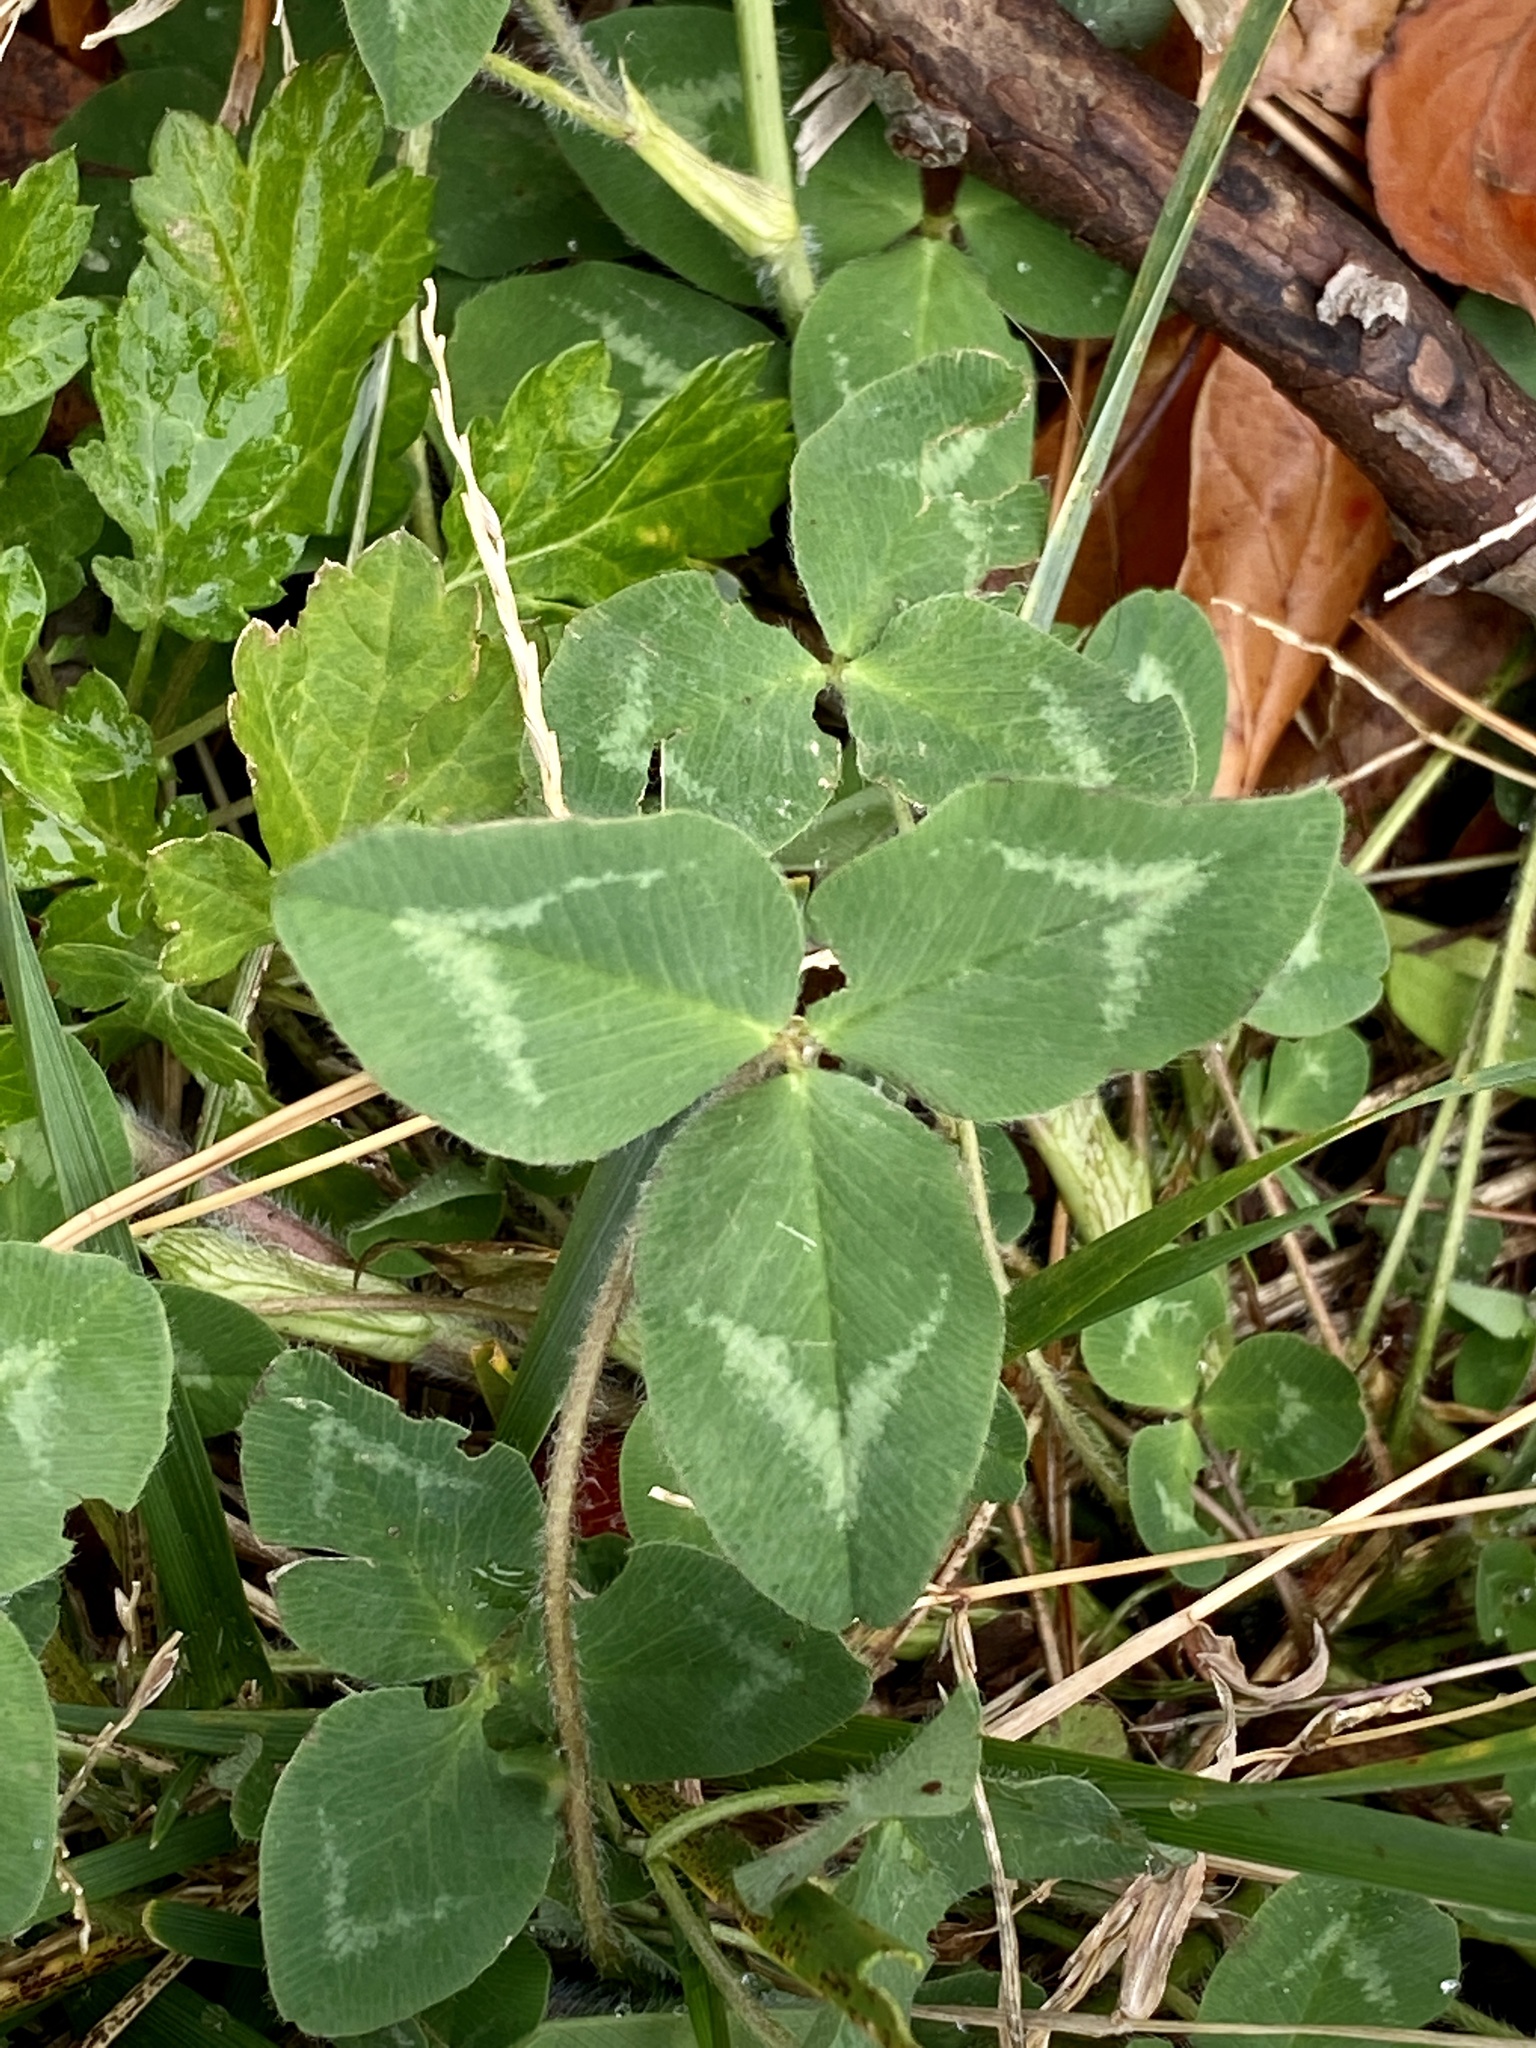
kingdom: Plantae
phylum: Tracheophyta
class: Magnoliopsida
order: Fabales
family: Fabaceae
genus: Trifolium
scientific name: Trifolium pratense
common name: Red clover
